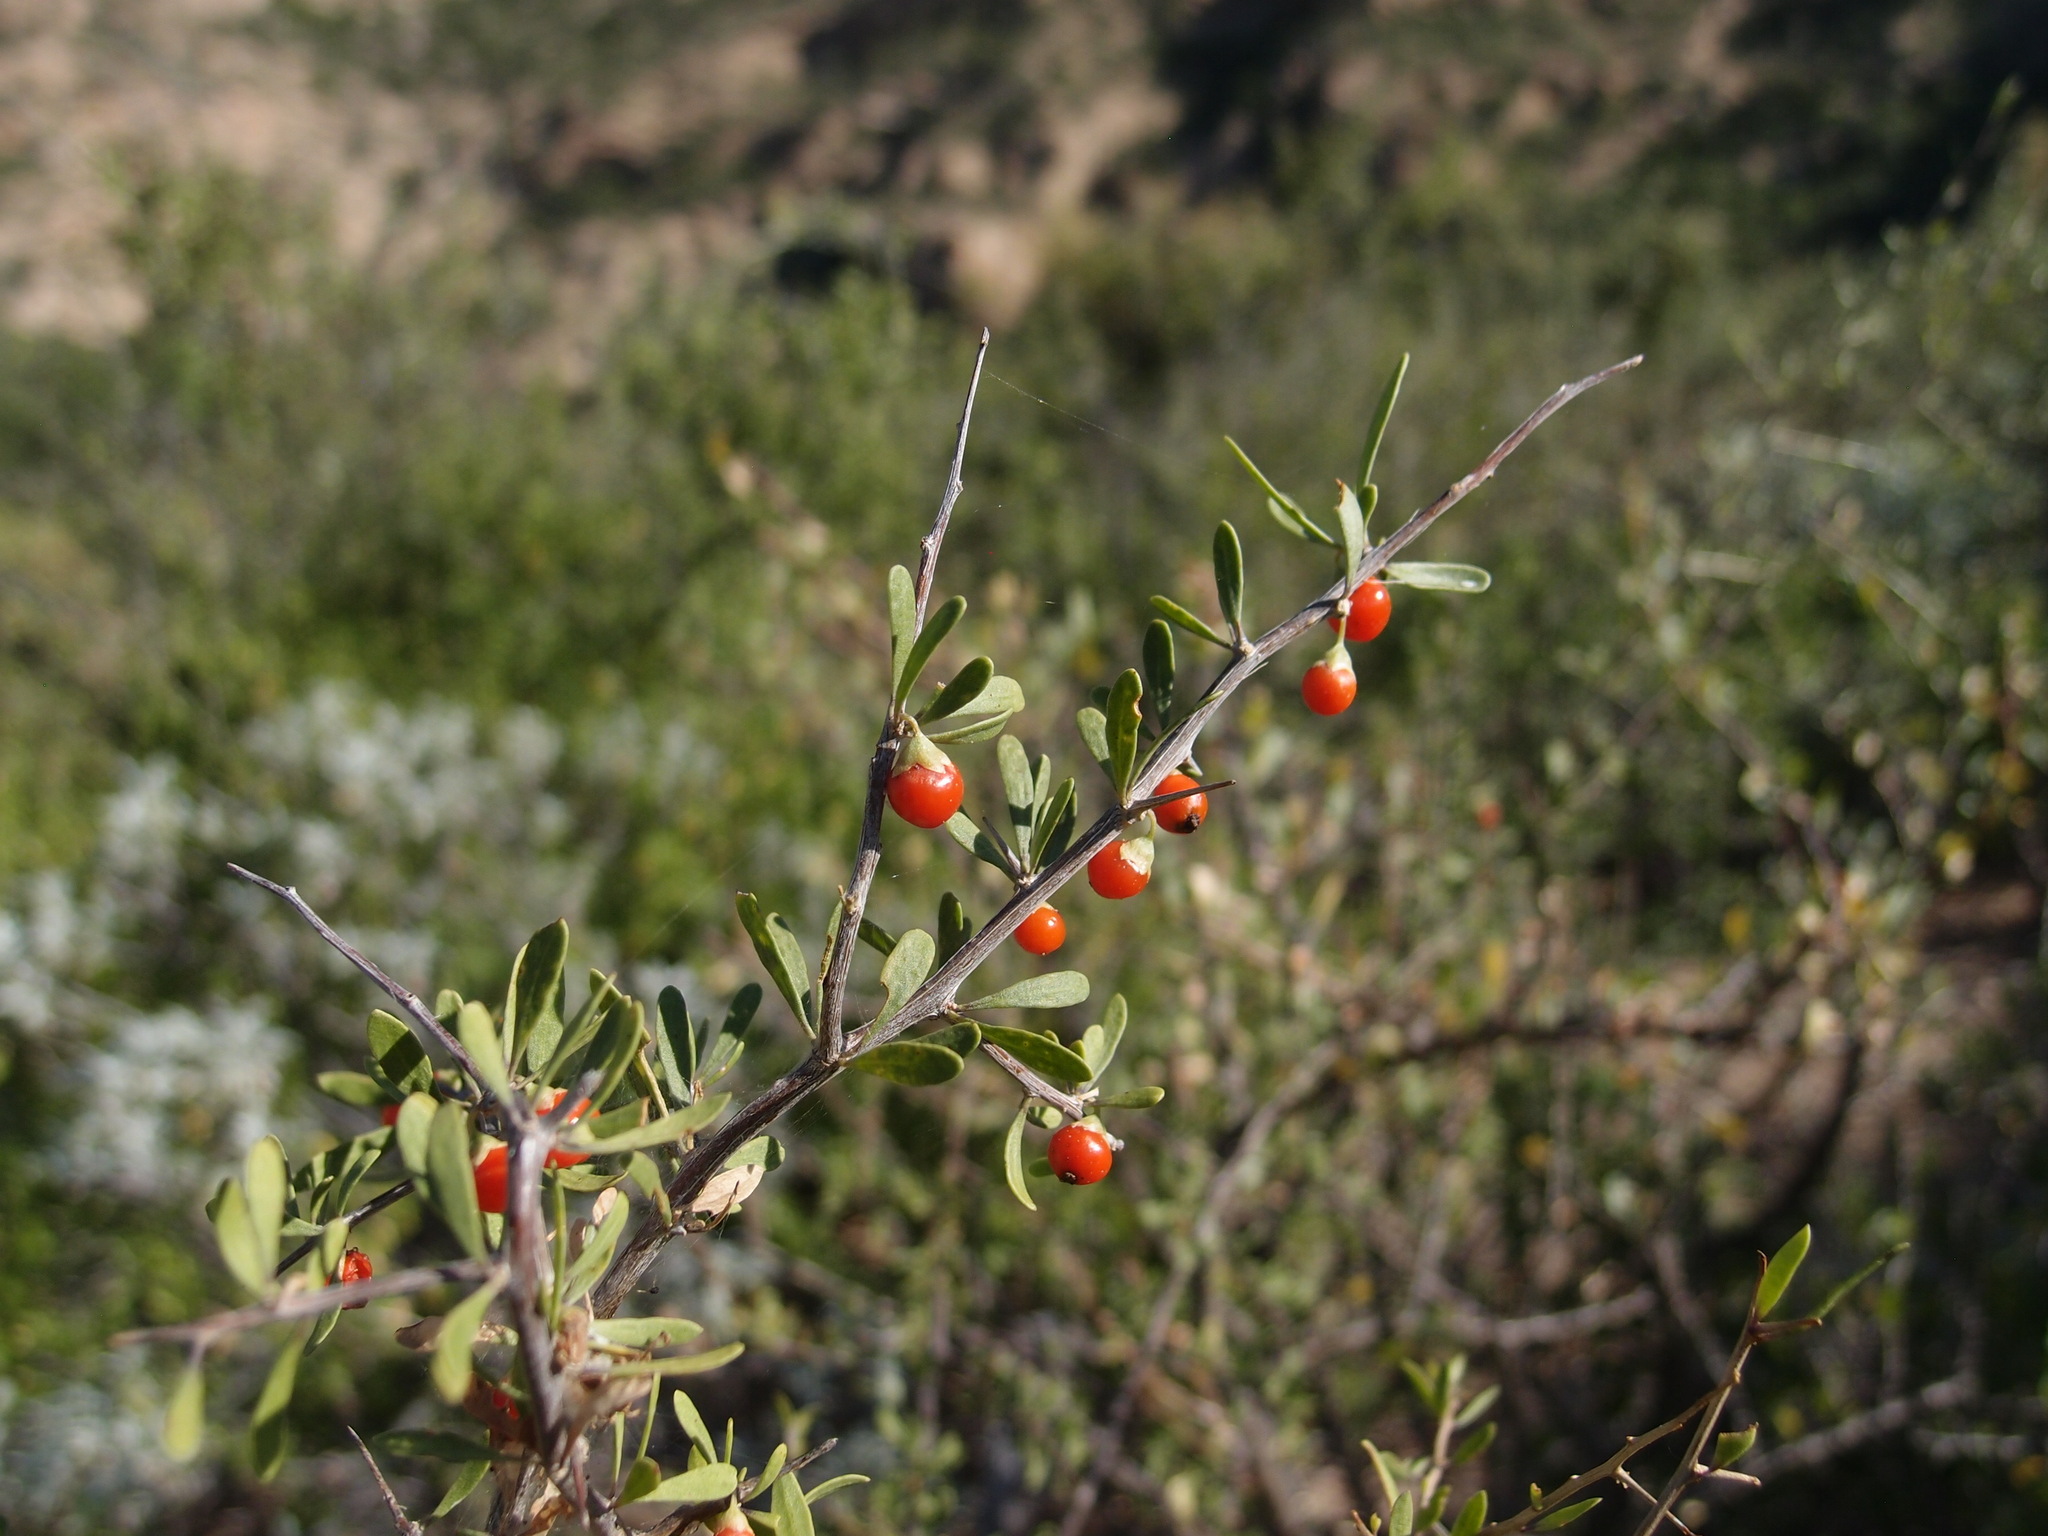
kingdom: Plantae
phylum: Tracheophyta
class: Magnoliopsida
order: Solanales
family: Solanaceae
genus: Lycium
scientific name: Lycium berlandieri
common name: Berlandier wolfberry
